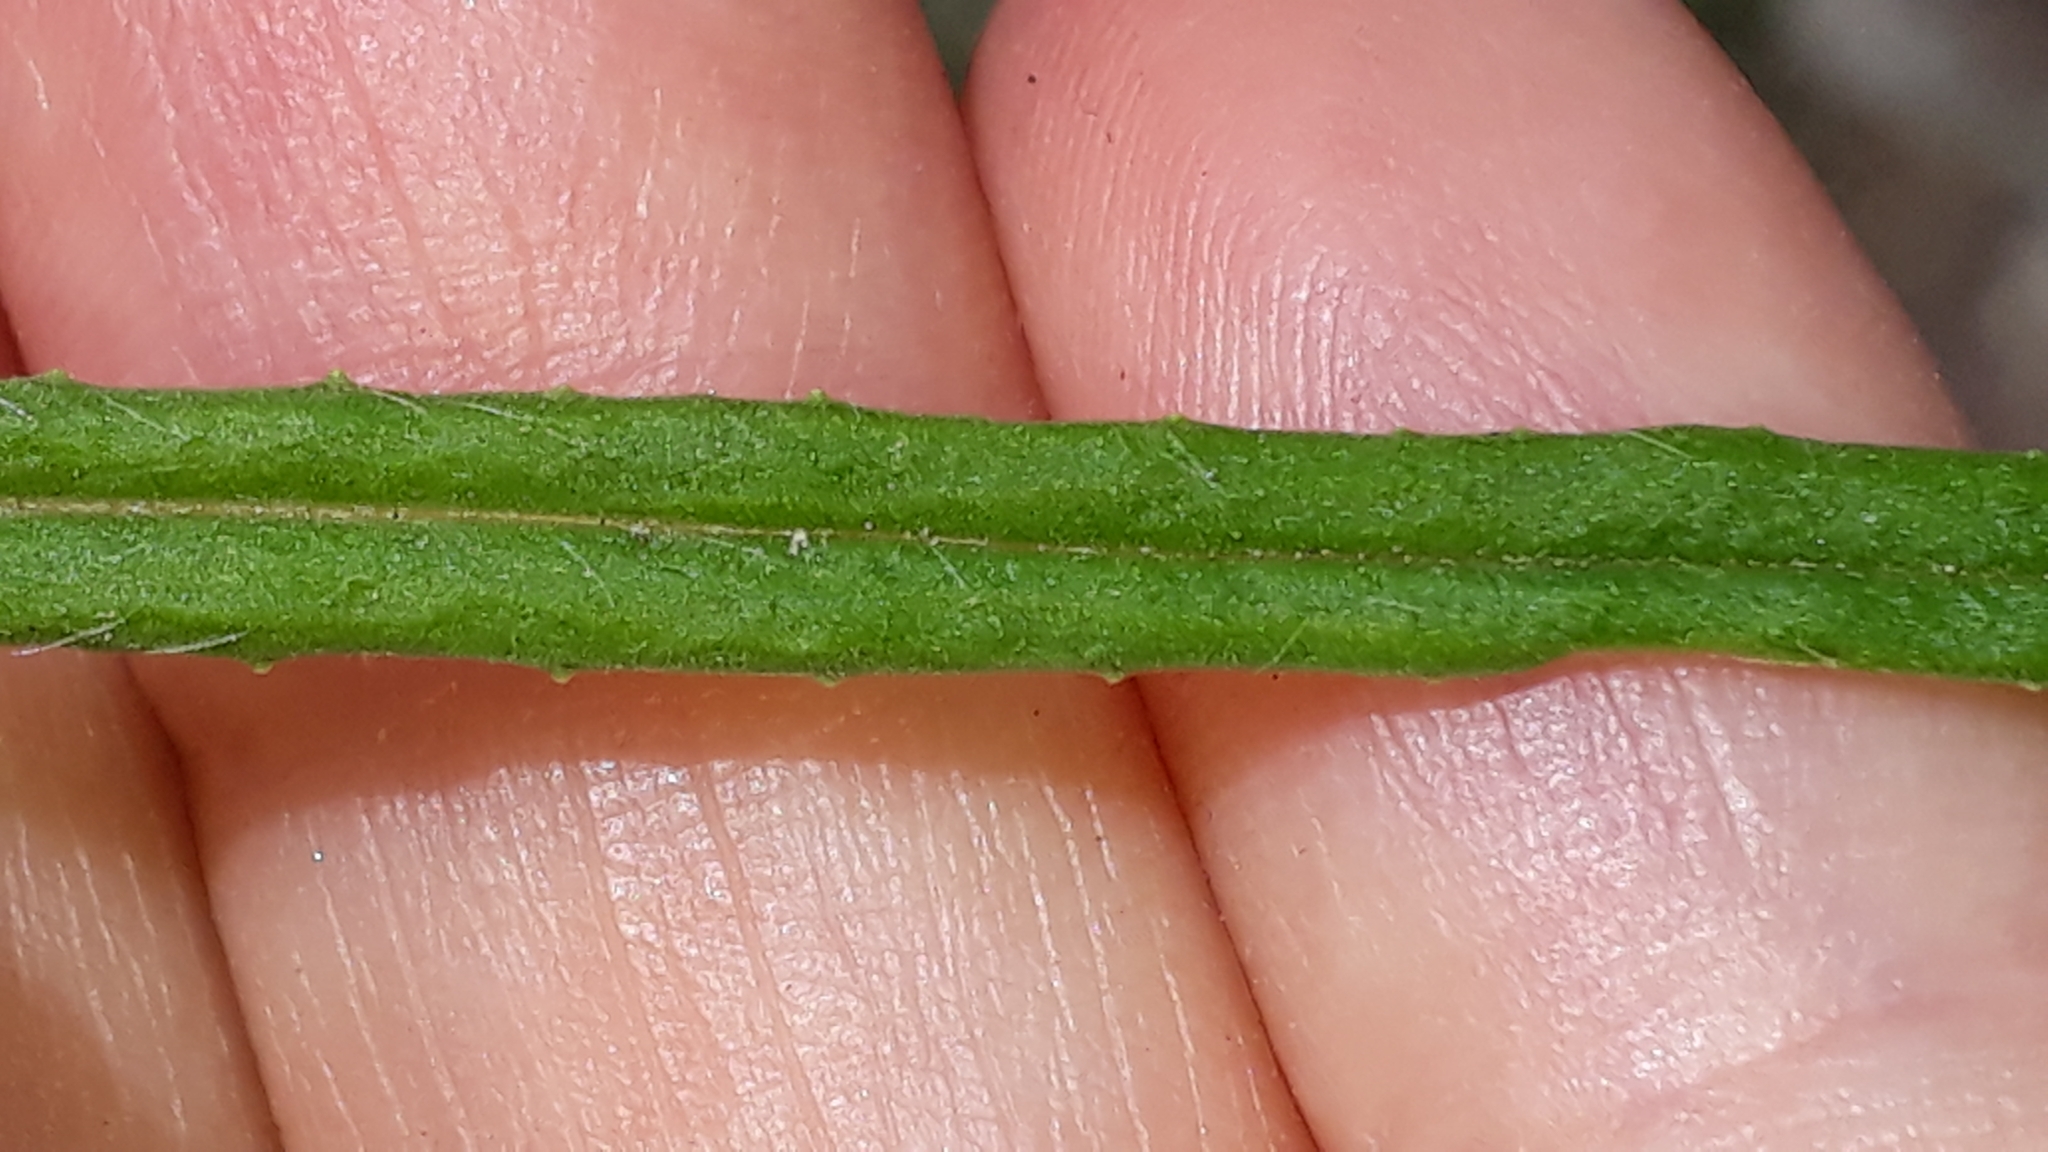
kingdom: Plantae
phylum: Tracheophyta
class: Magnoliopsida
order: Asterales
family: Asteraceae
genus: Senecio
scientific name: Senecio inaequidens
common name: Narrow-leaved ragwort
